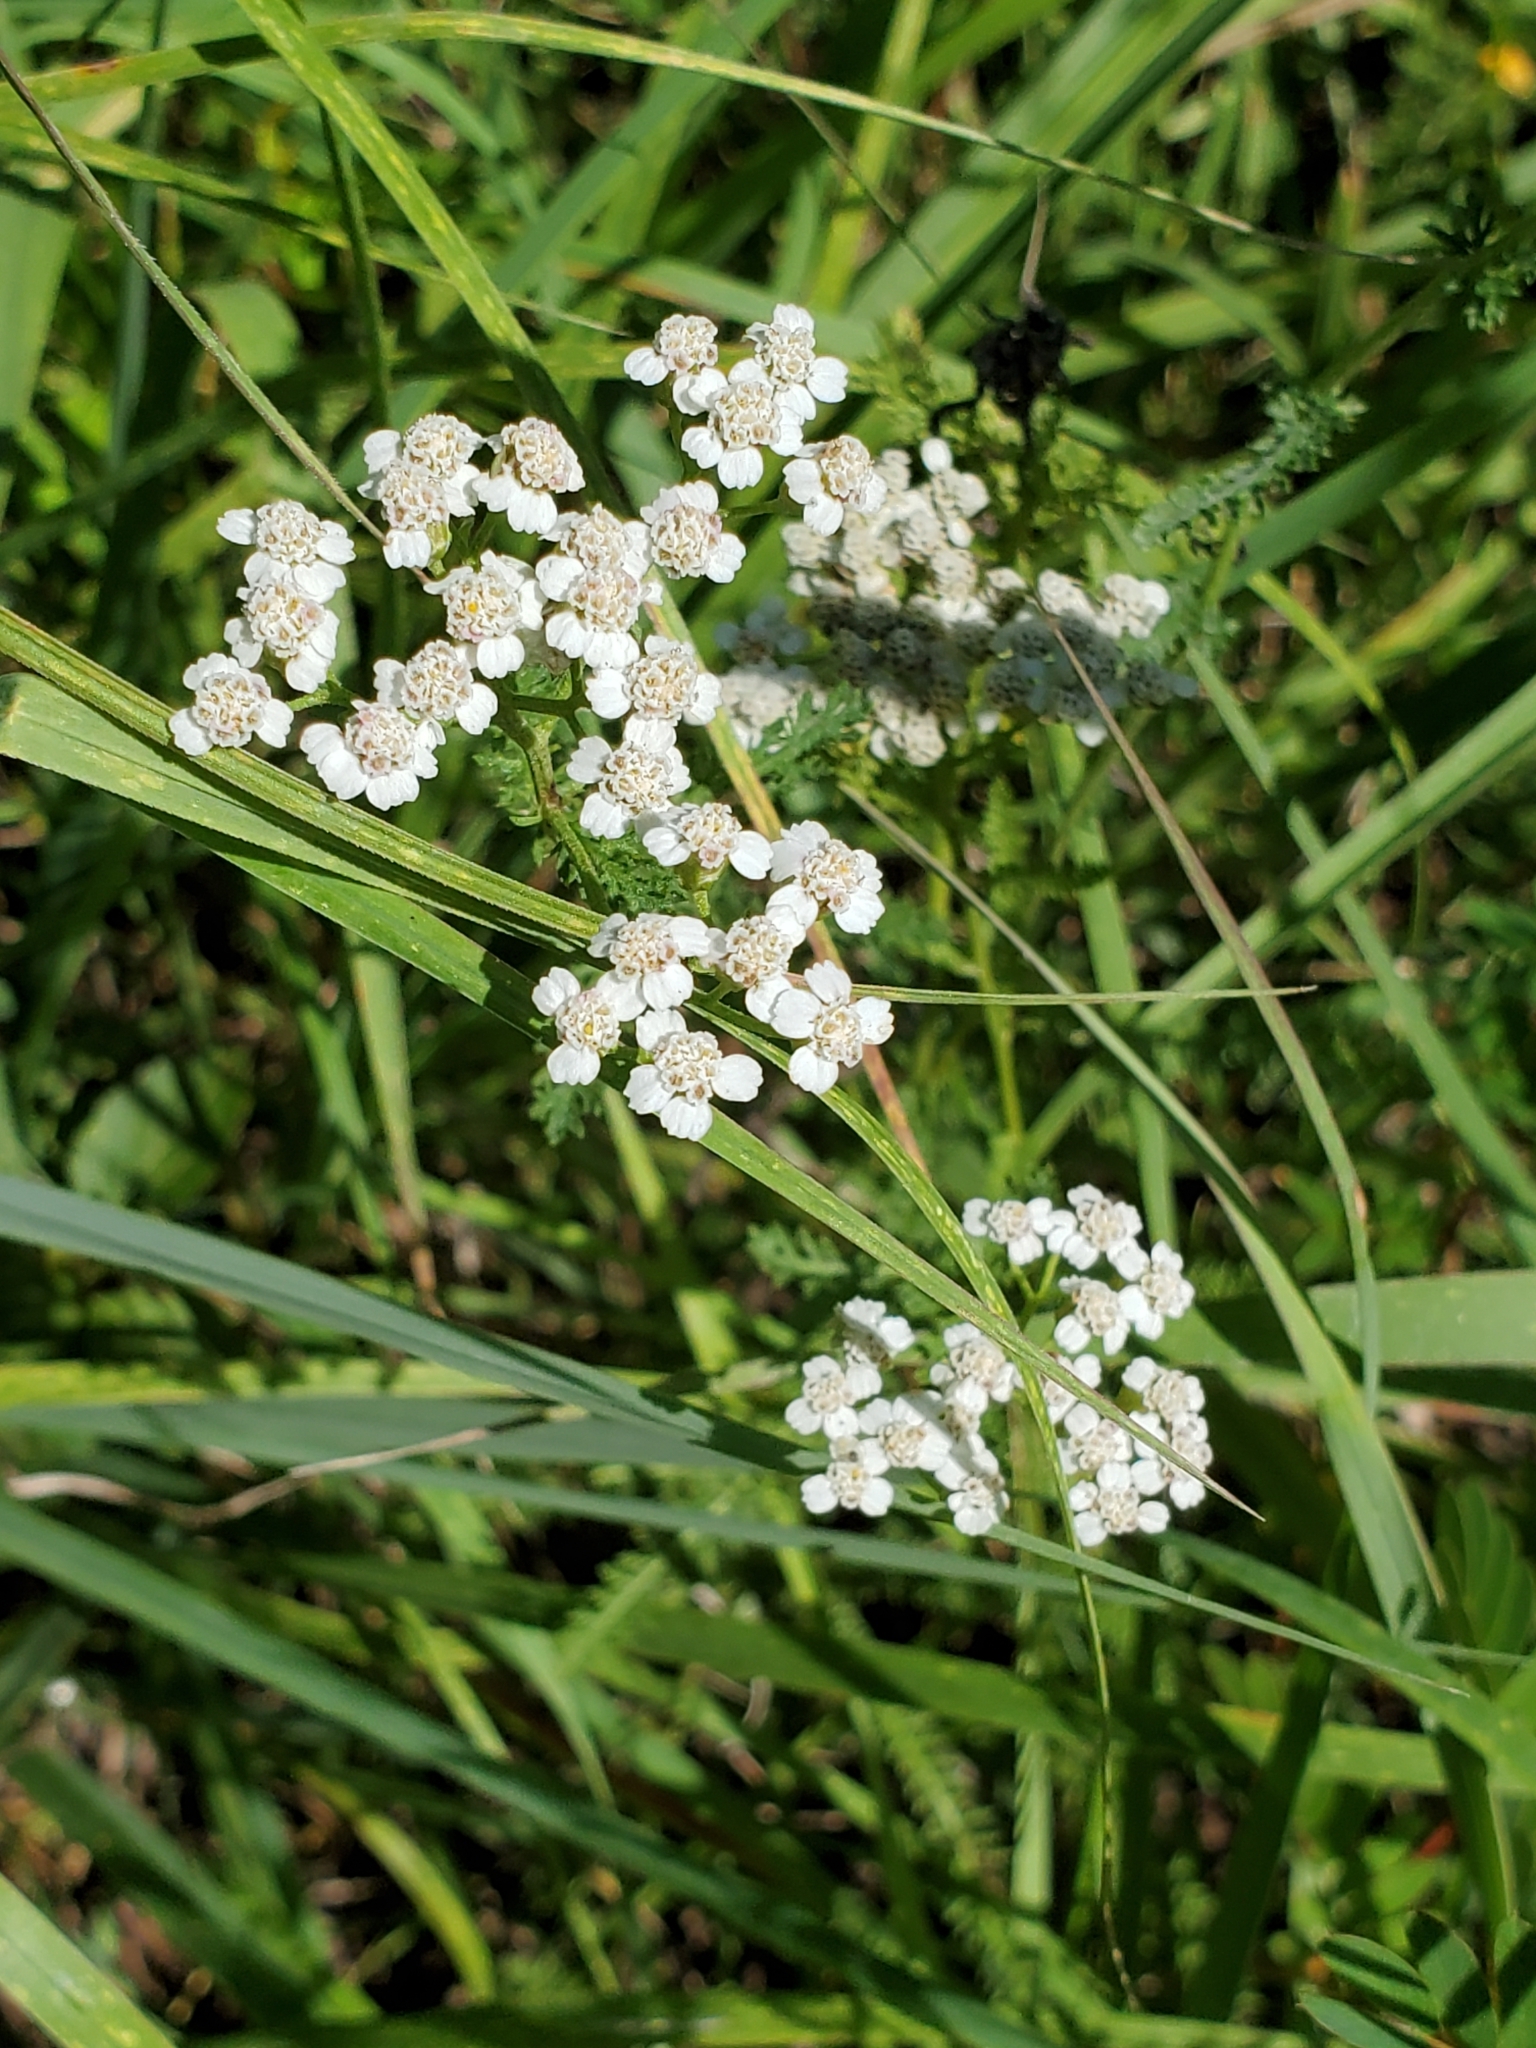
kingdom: Plantae
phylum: Tracheophyta
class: Magnoliopsida
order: Asterales
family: Asteraceae
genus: Achillea
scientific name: Achillea millefolium
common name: Yarrow
